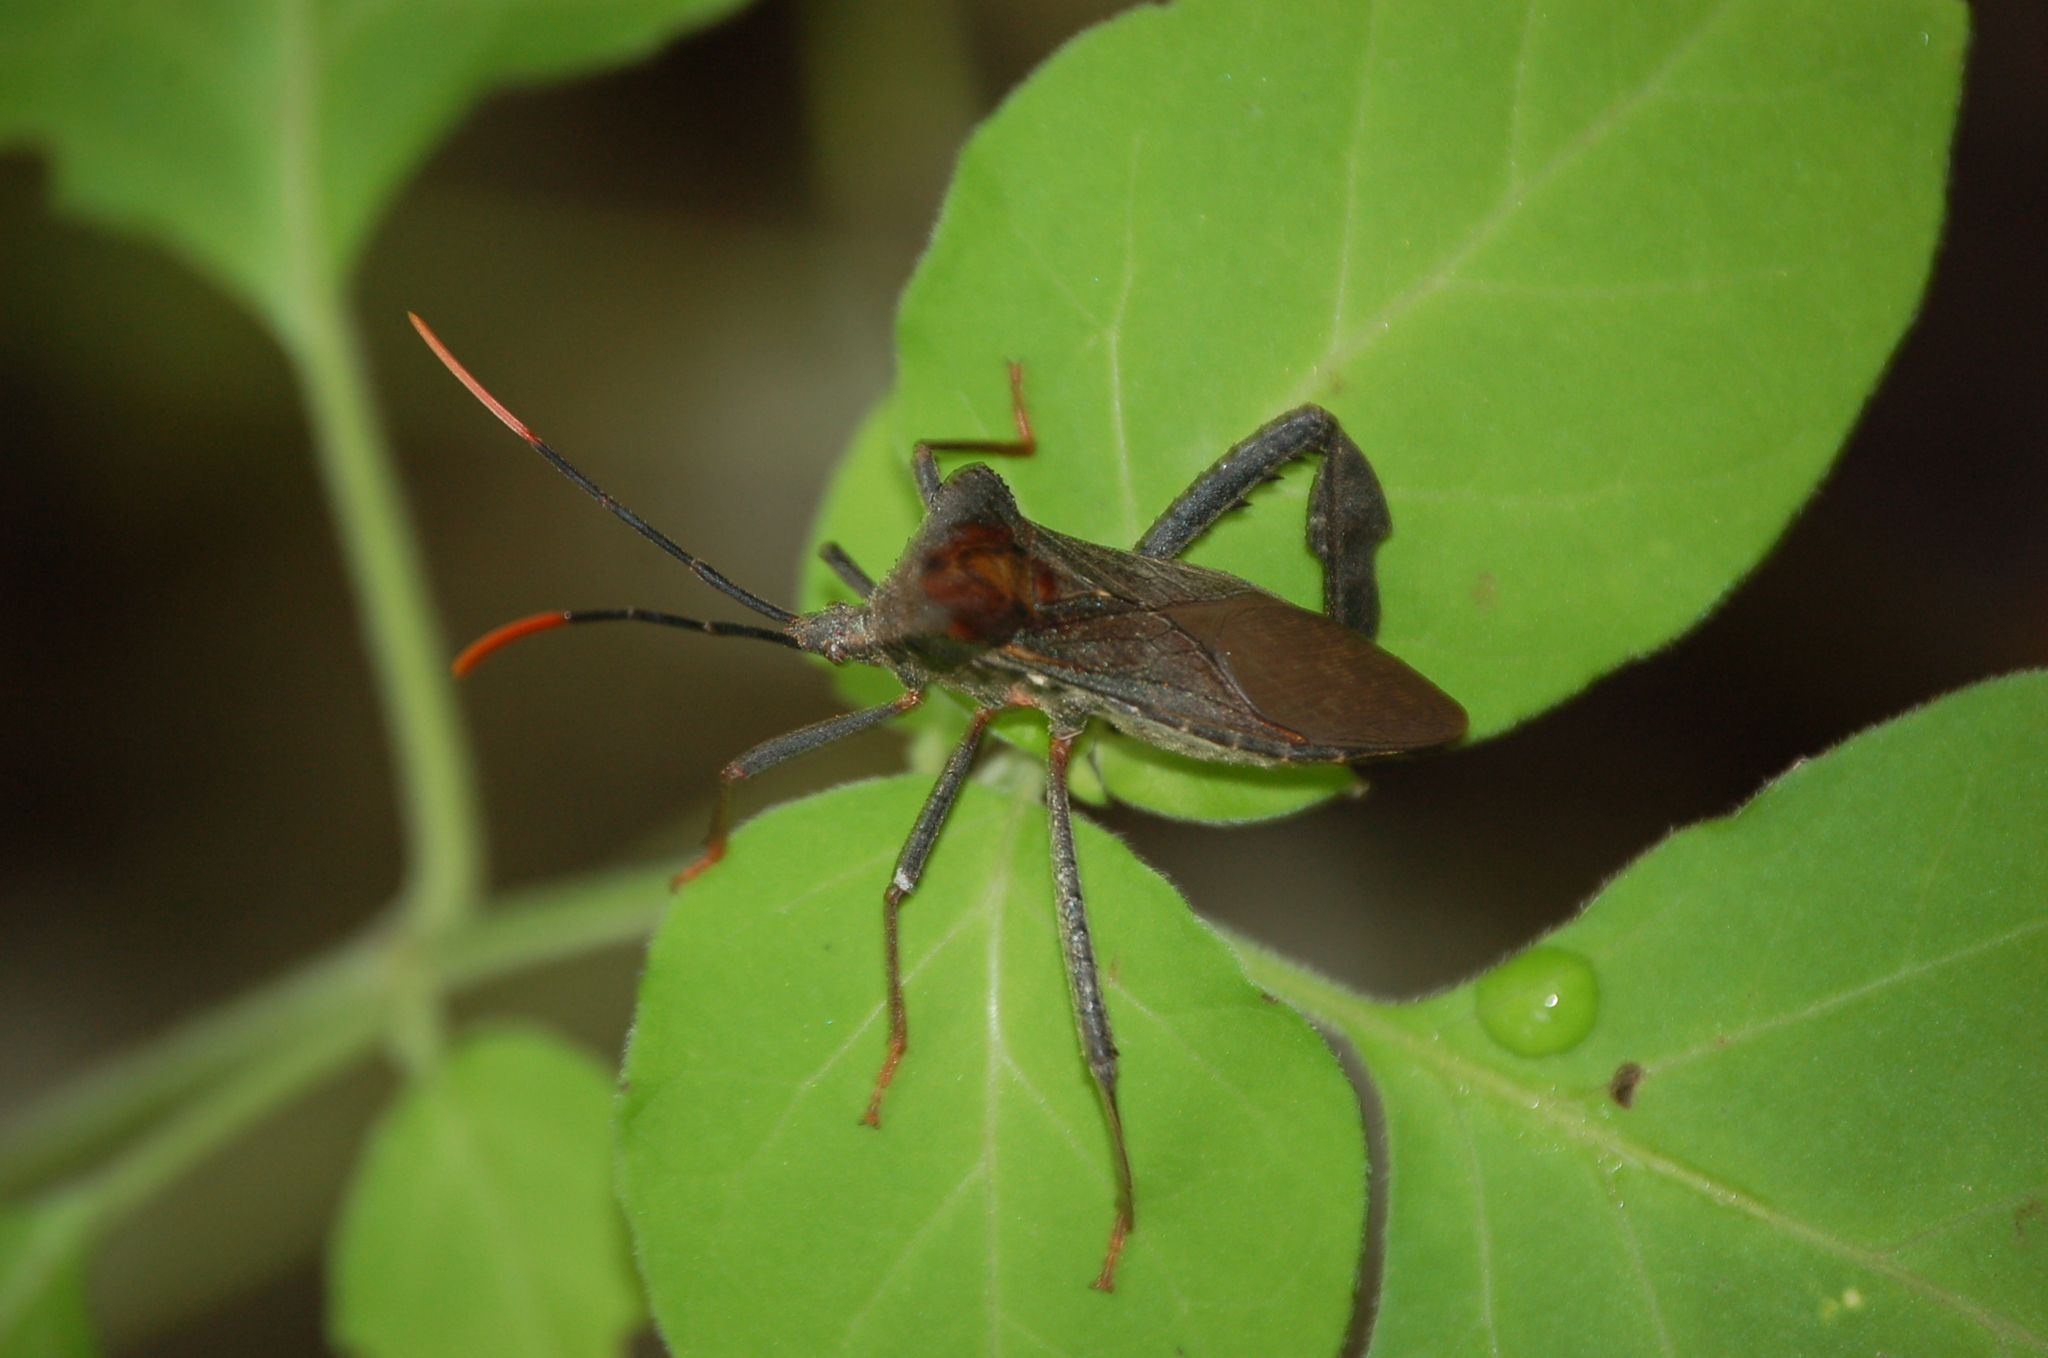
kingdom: Animalia
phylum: Arthropoda
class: Insecta
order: Hemiptera
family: Coreidae
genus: Acanthocephala
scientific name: Acanthocephala alata
